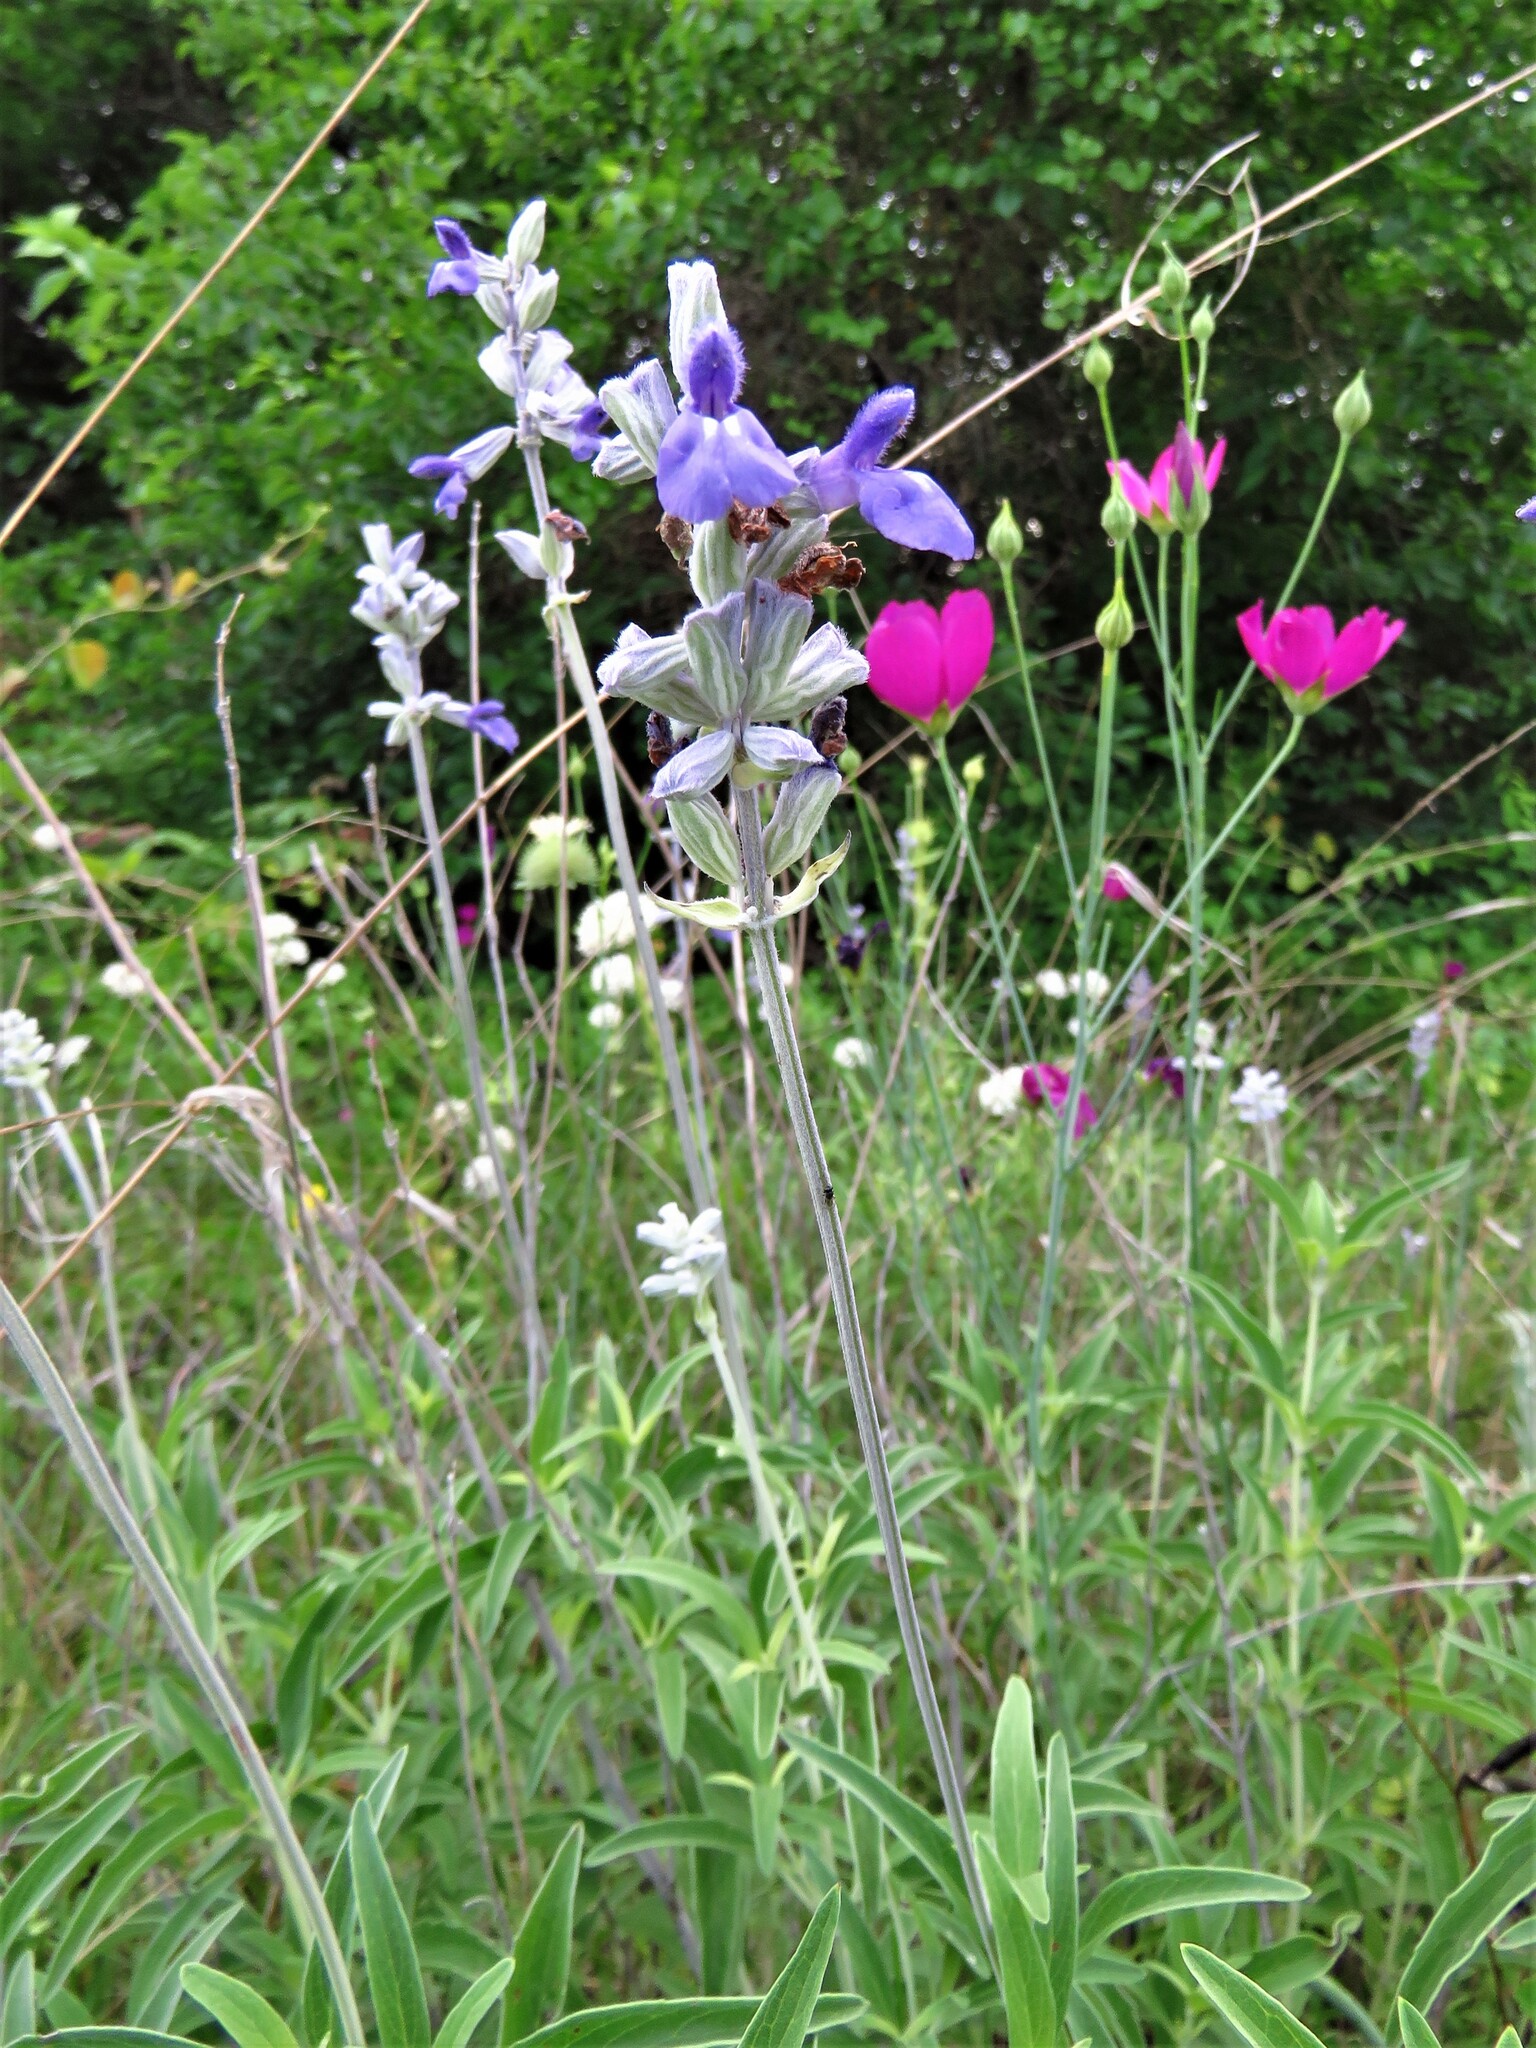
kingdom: Plantae
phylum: Tracheophyta
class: Magnoliopsida
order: Lamiales
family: Lamiaceae
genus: Salvia
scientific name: Salvia farinacea
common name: Mealy sage
